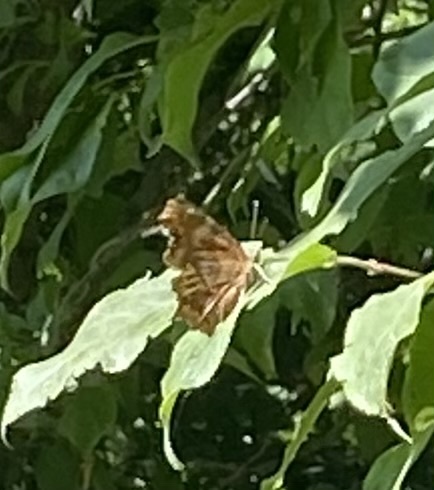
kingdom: Animalia
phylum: Arthropoda
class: Insecta
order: Lepidoptera
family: Nymphalidae
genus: Polygonia
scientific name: Polygonia c-album
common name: Comma
